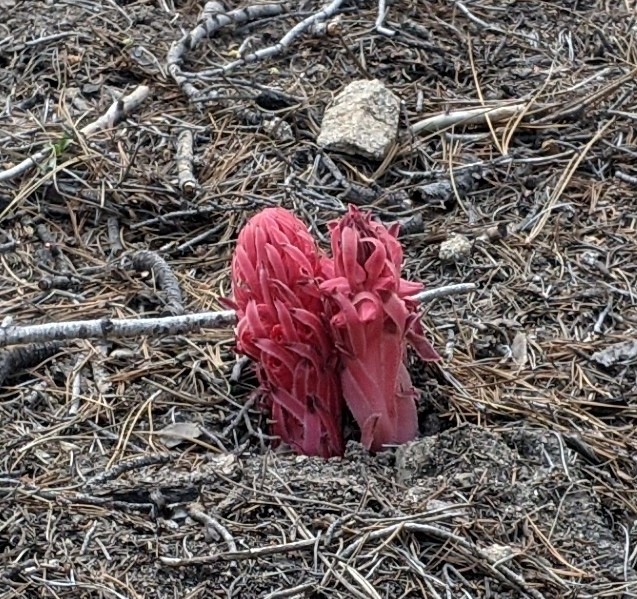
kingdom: Plantae
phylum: Tracheophyta
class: Magnoliopsida
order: Ericales
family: Ericaceae
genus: Sarcodes
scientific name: Sarcodes sanguinea
